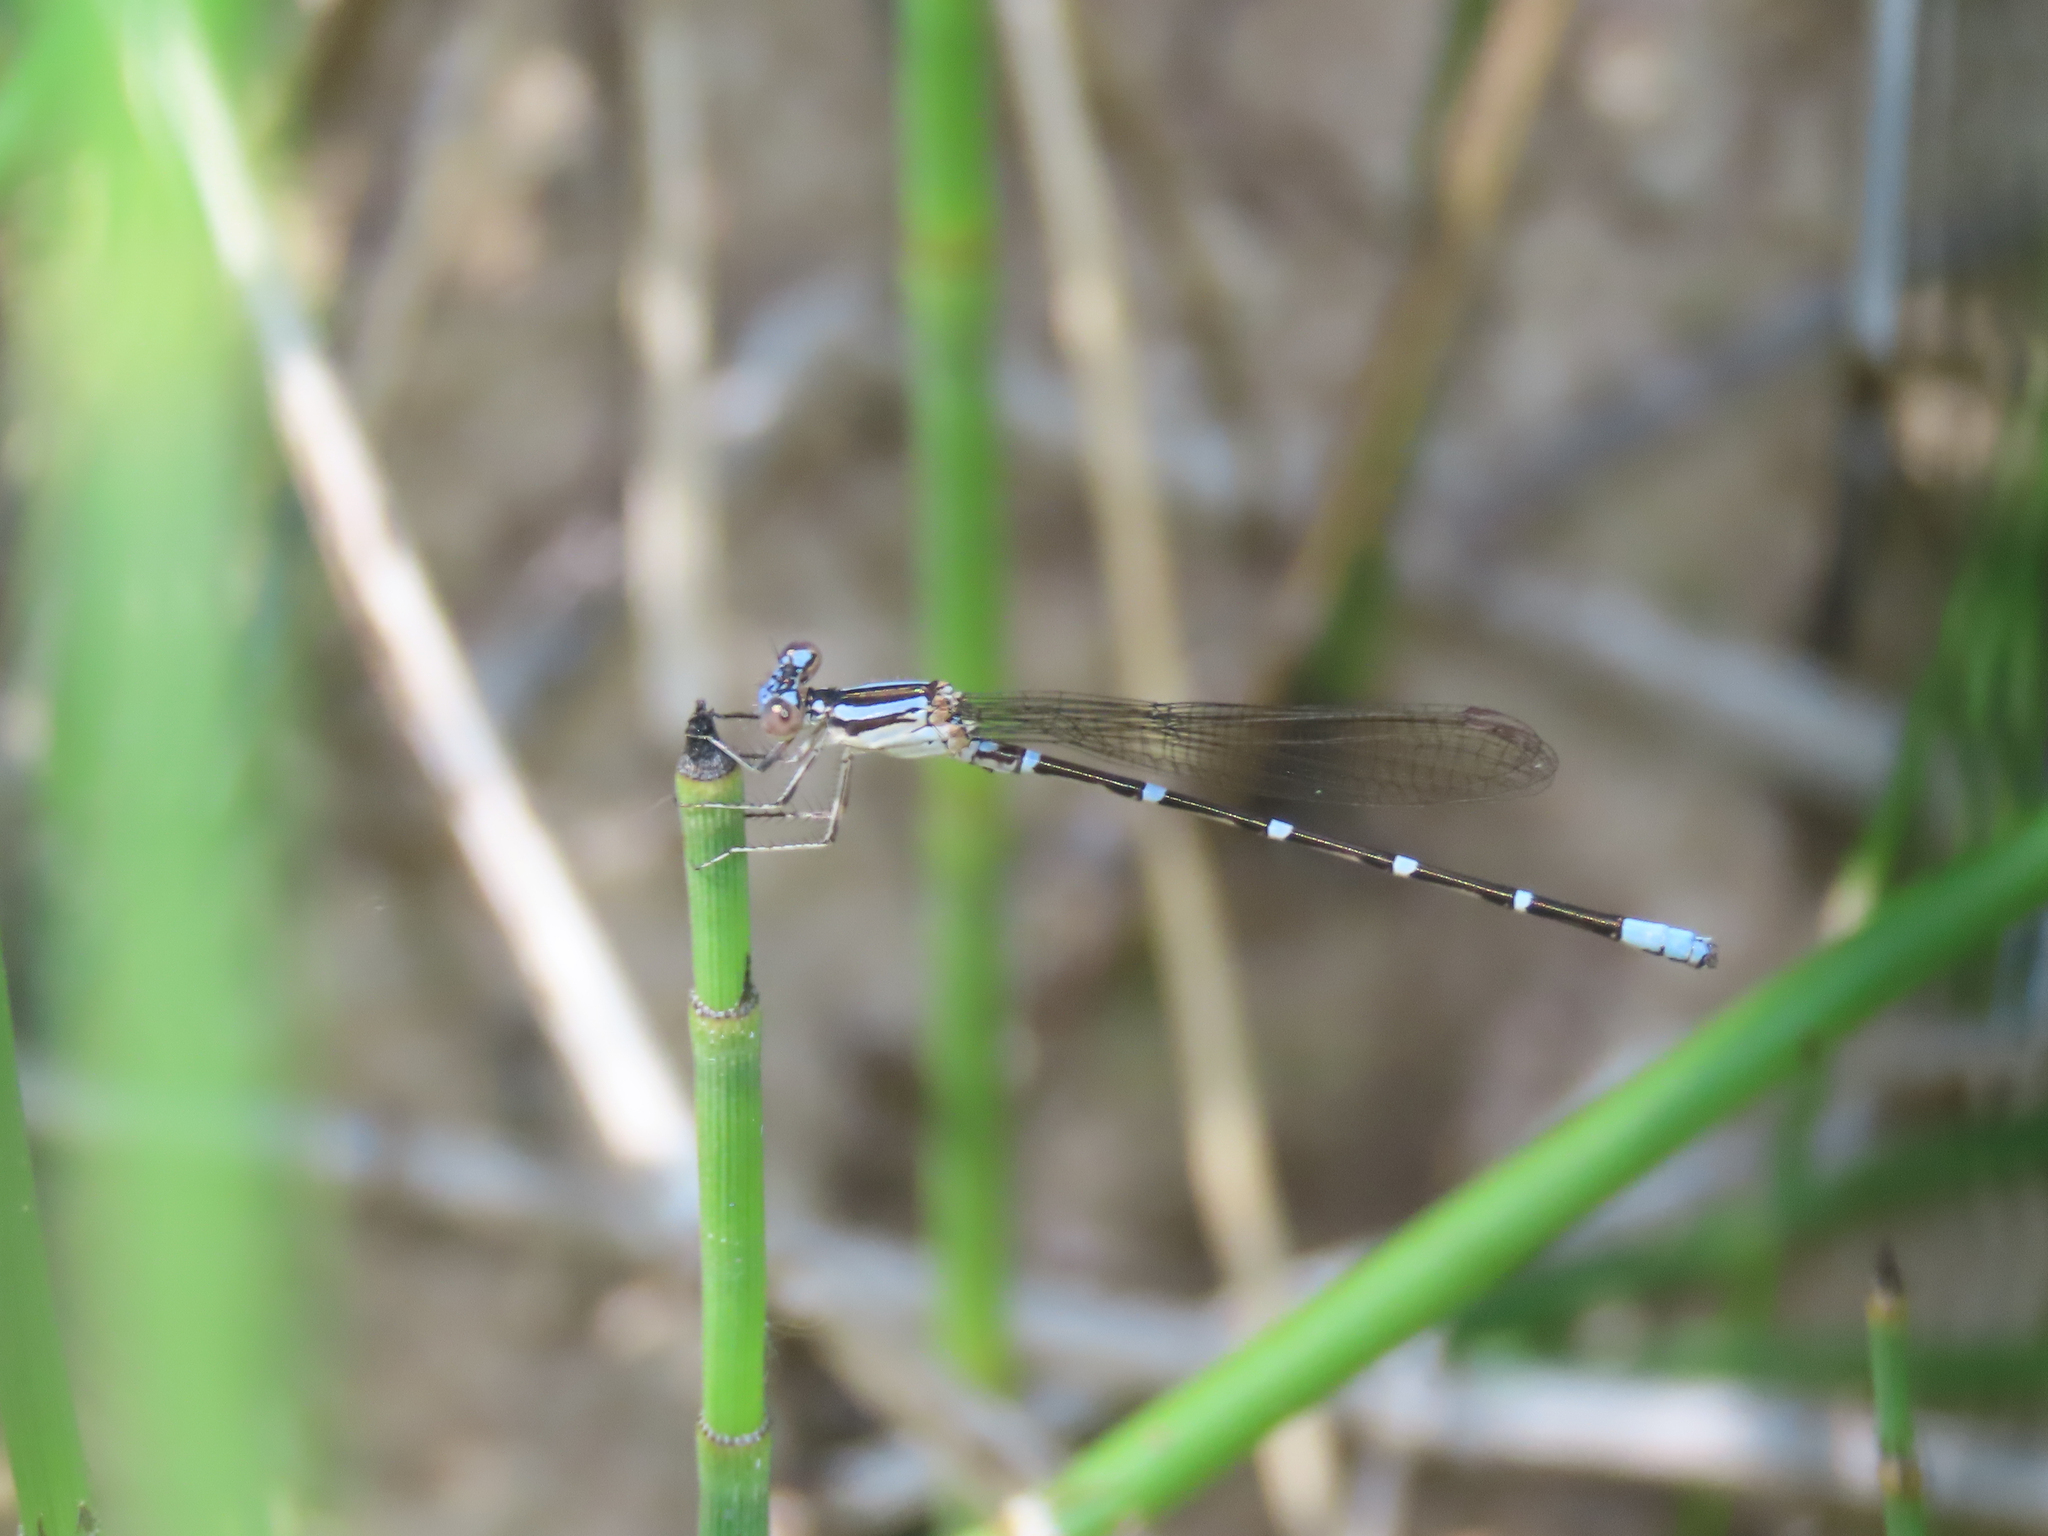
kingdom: Animalia
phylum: Arthropoda
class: Insecta
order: Odonata
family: Coenagrionidae
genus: Argia
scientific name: Argia sedula
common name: Blue-ringed dancer
